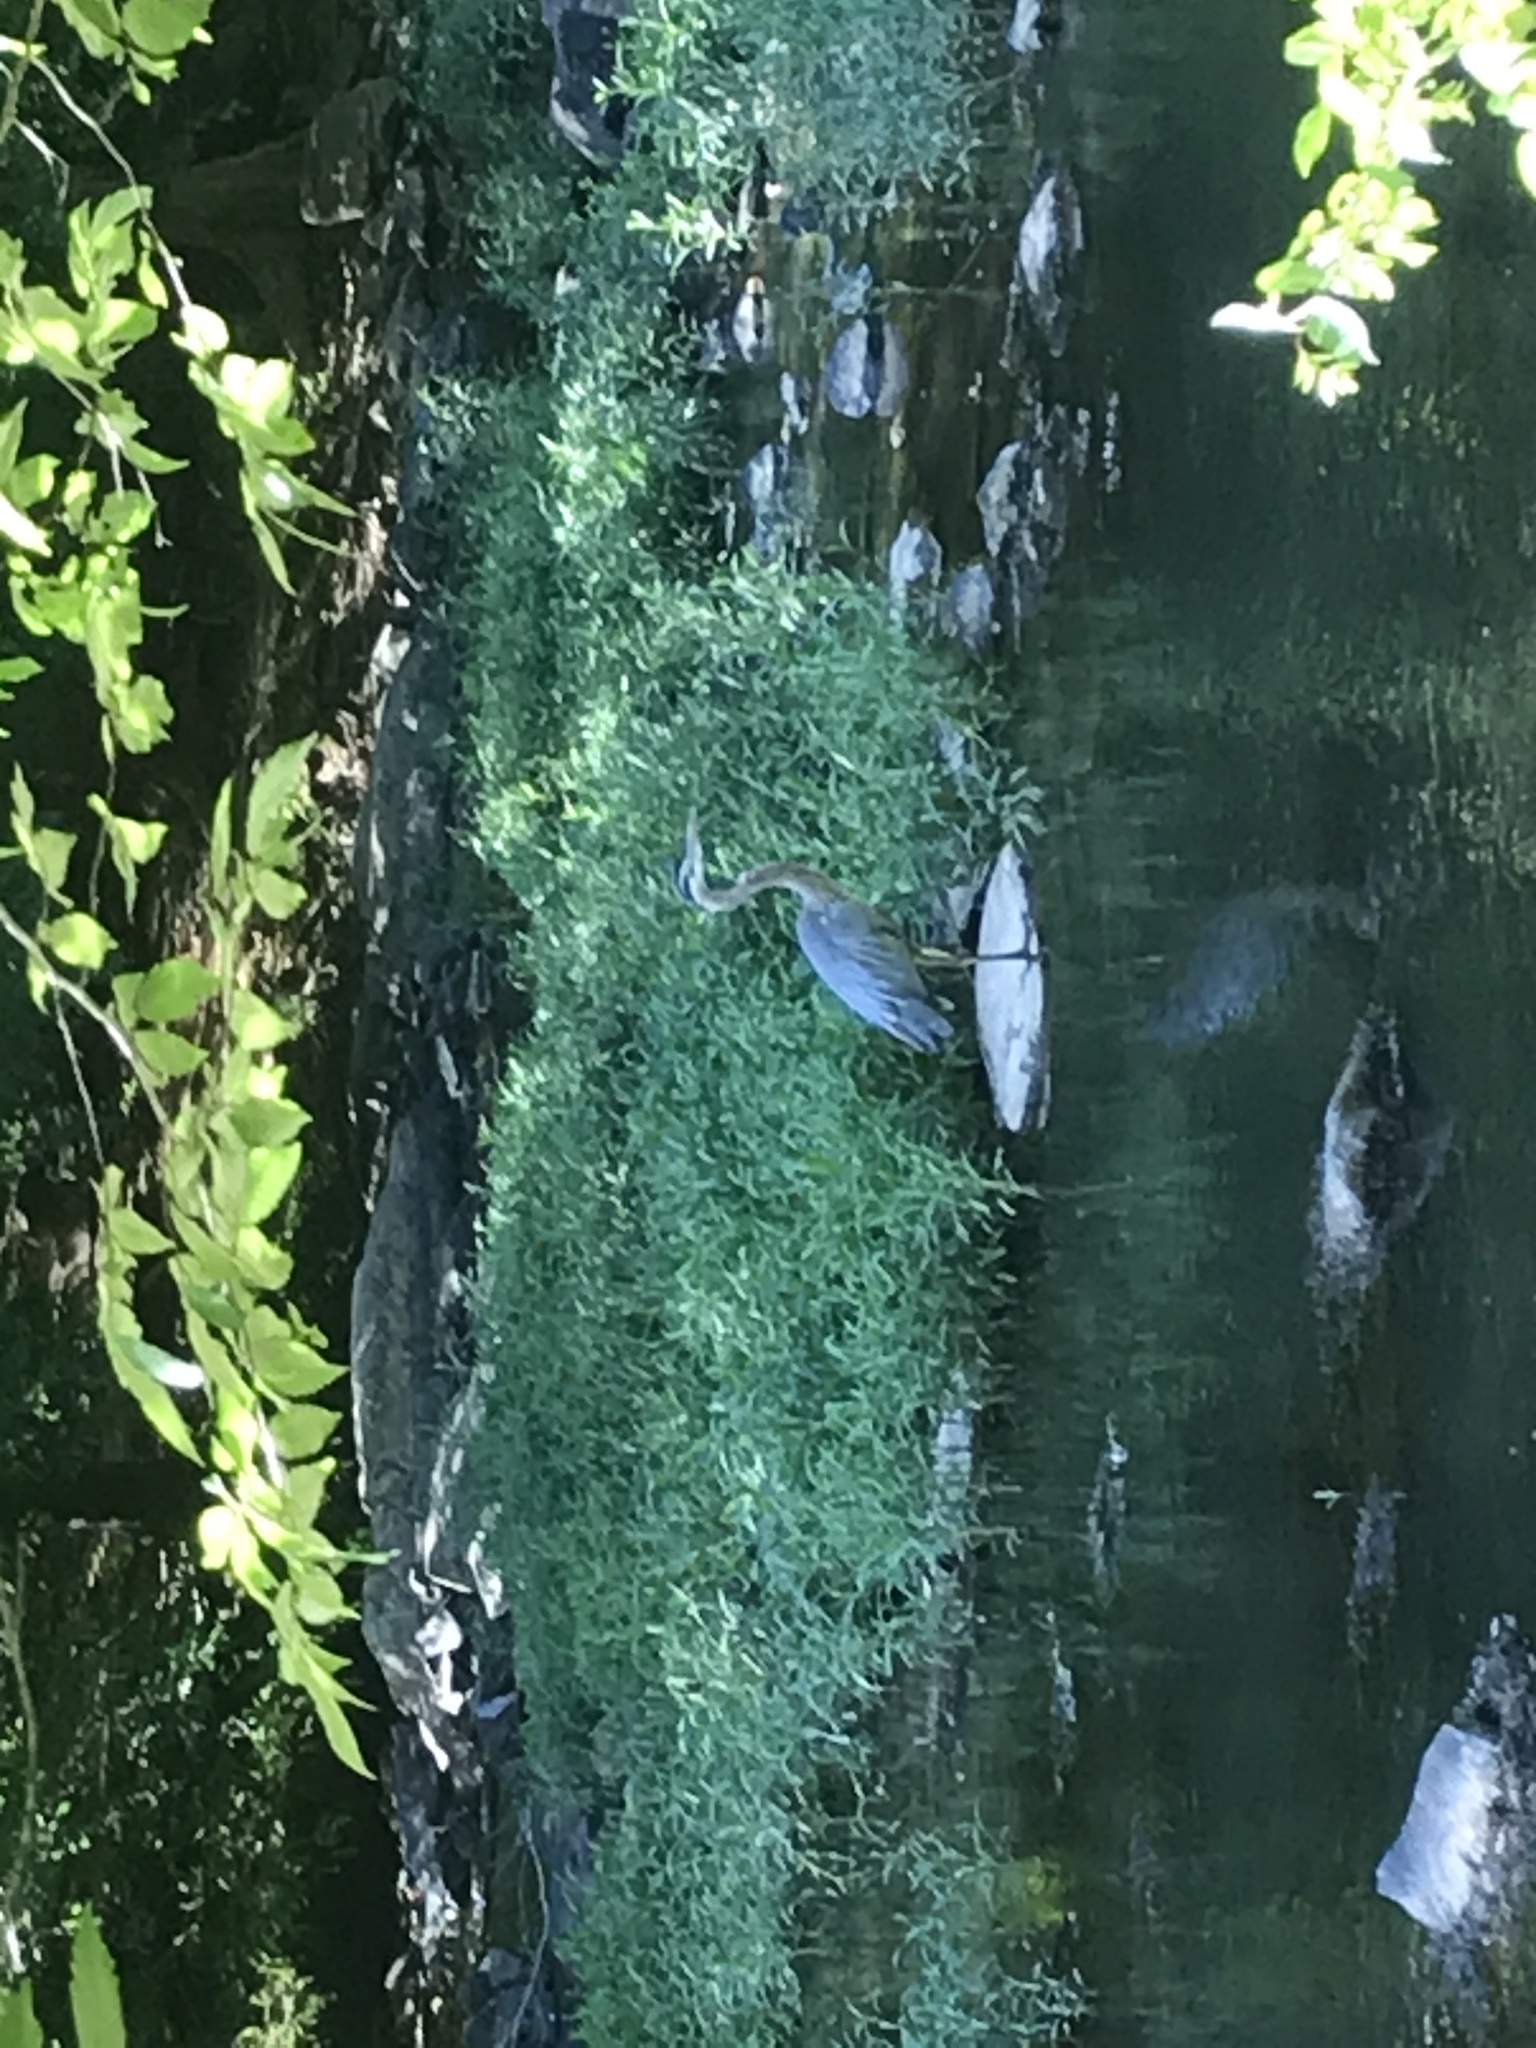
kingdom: Animalia
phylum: Chordata
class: Aves
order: Pelecaniformes
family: Ardeidae
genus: Ardea
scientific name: Ardea herodias
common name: Great blue heron
